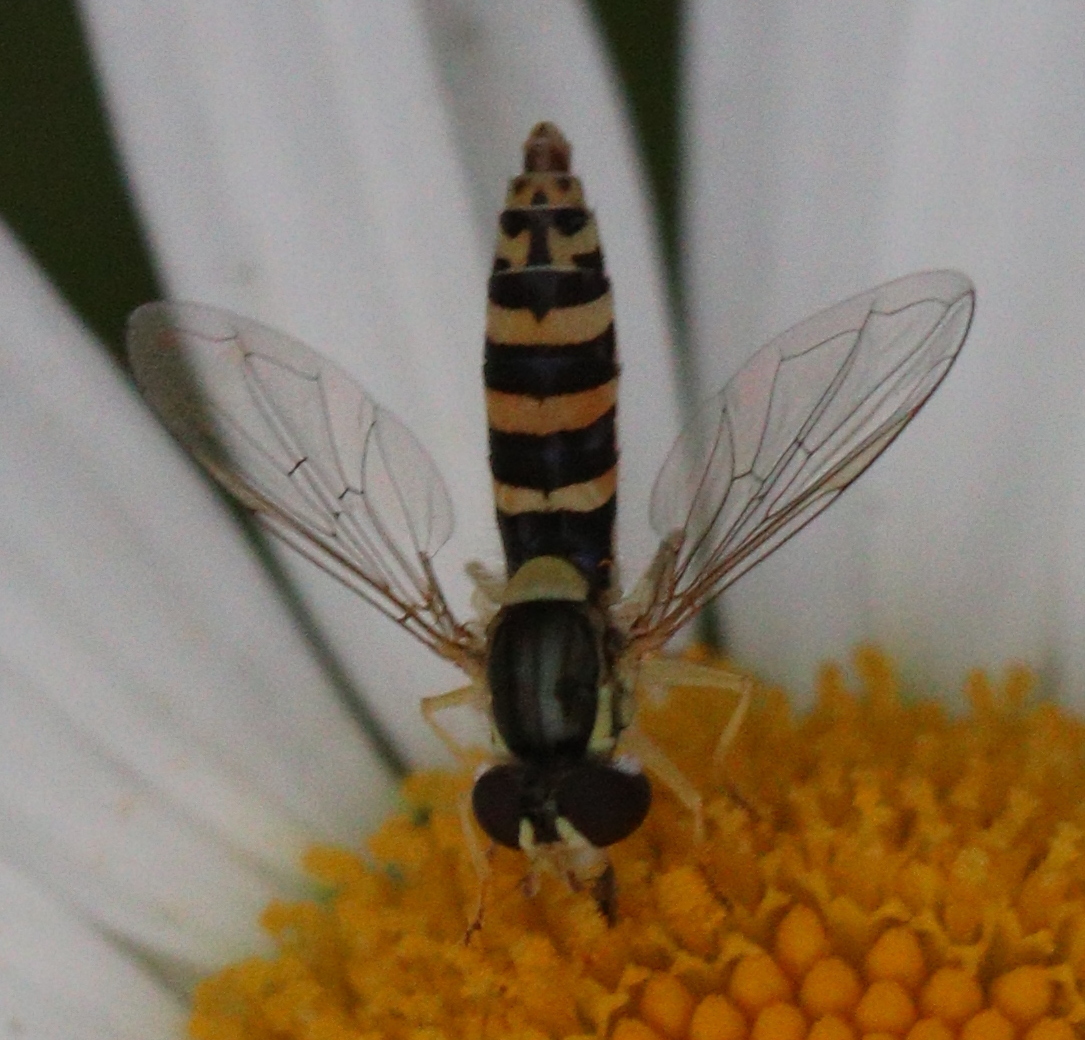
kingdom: Animalia
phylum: Arthropoda
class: Insecta
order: Diptera
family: Syrphidae
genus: Sphaerophoria
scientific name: Sphaerophoria
